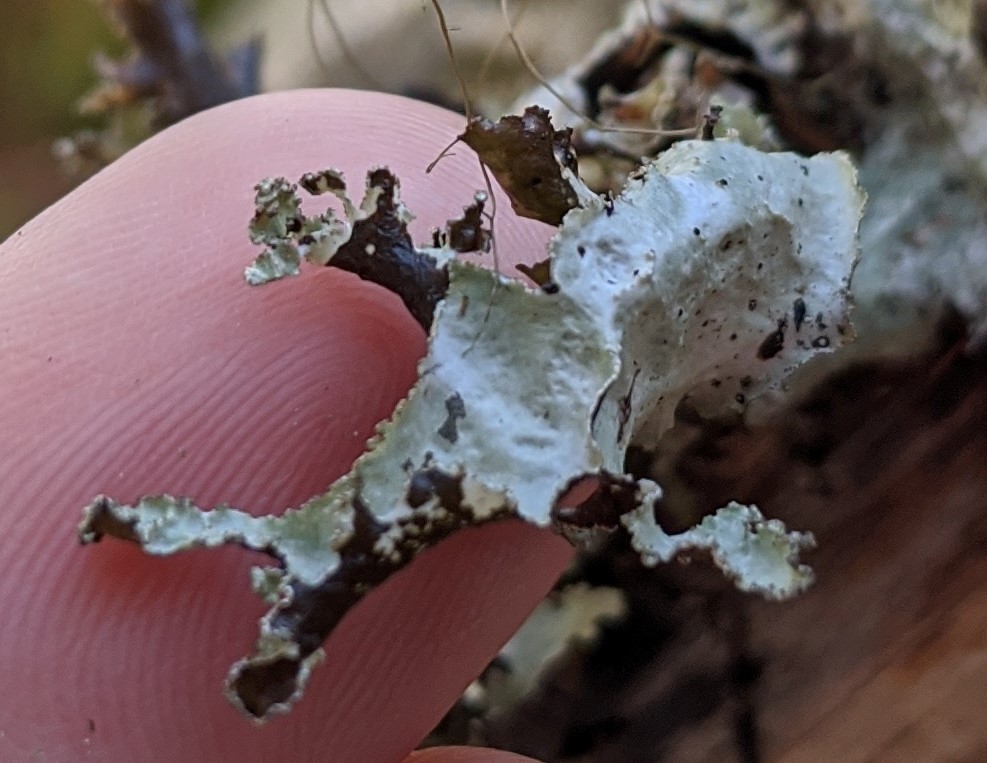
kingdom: Fungi
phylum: Ascomycota
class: Lecanoromycetes
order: Lecanorales
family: Parmeliaceae
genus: Platismatia
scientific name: Platismatia glauca
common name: Varied rag lichen
